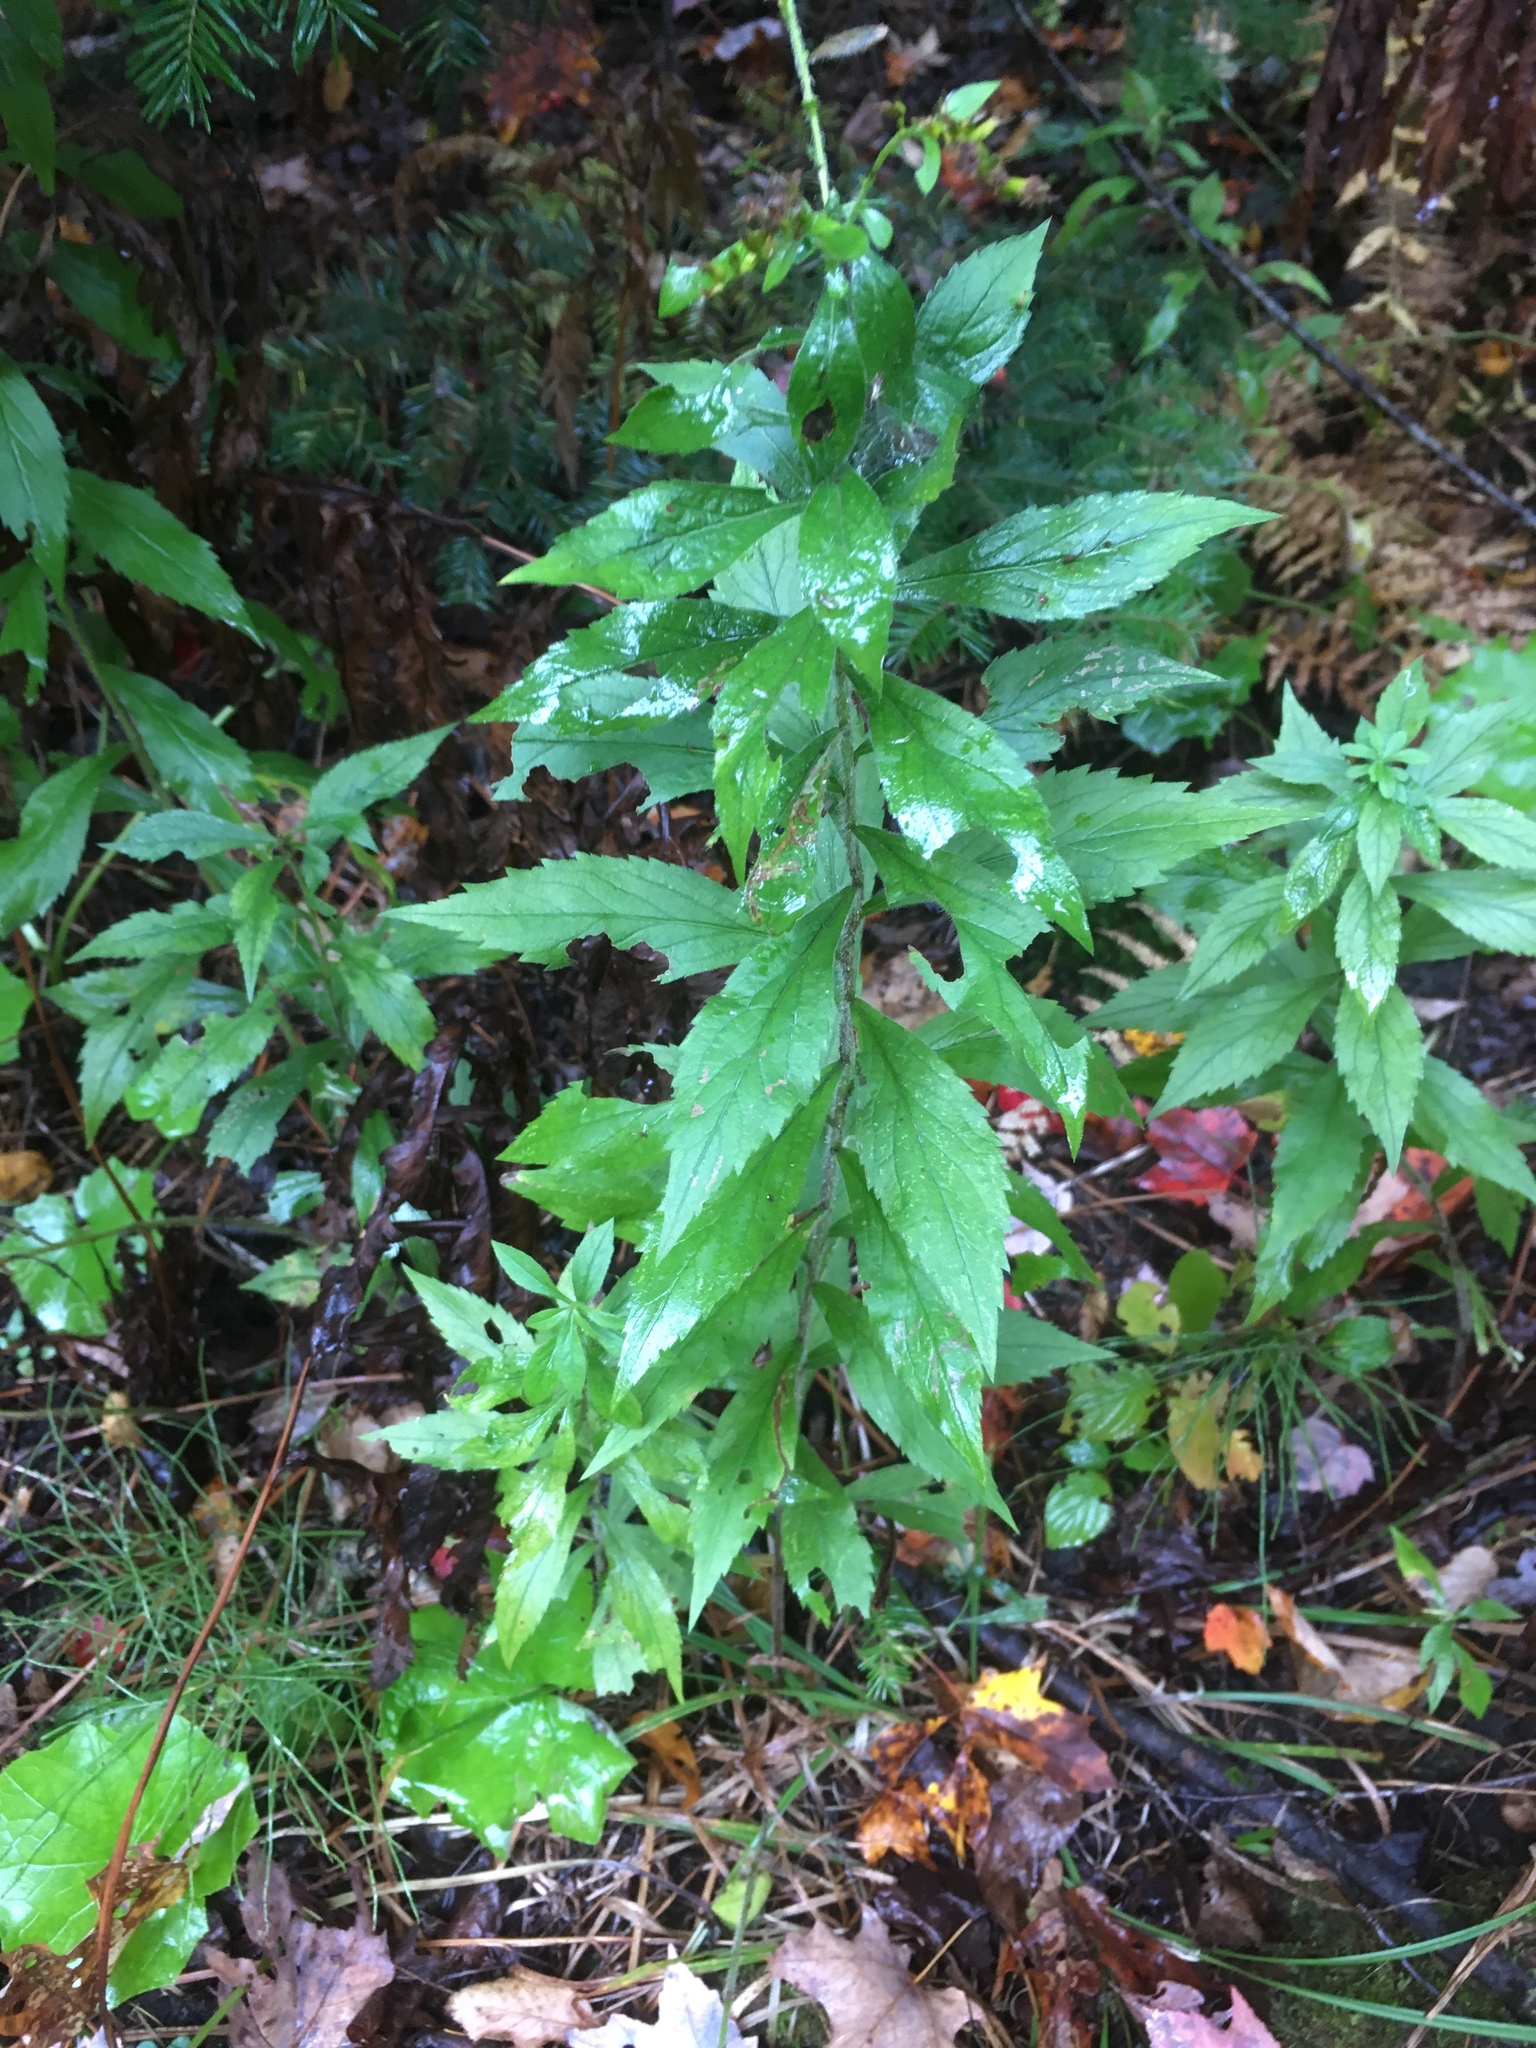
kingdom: Plantae
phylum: Tracheophyta
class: Magnoliopsida
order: Asterales
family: Asteraceae
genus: Solidago
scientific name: Solidago rugosa
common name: Rough-stemmed goldenrod
